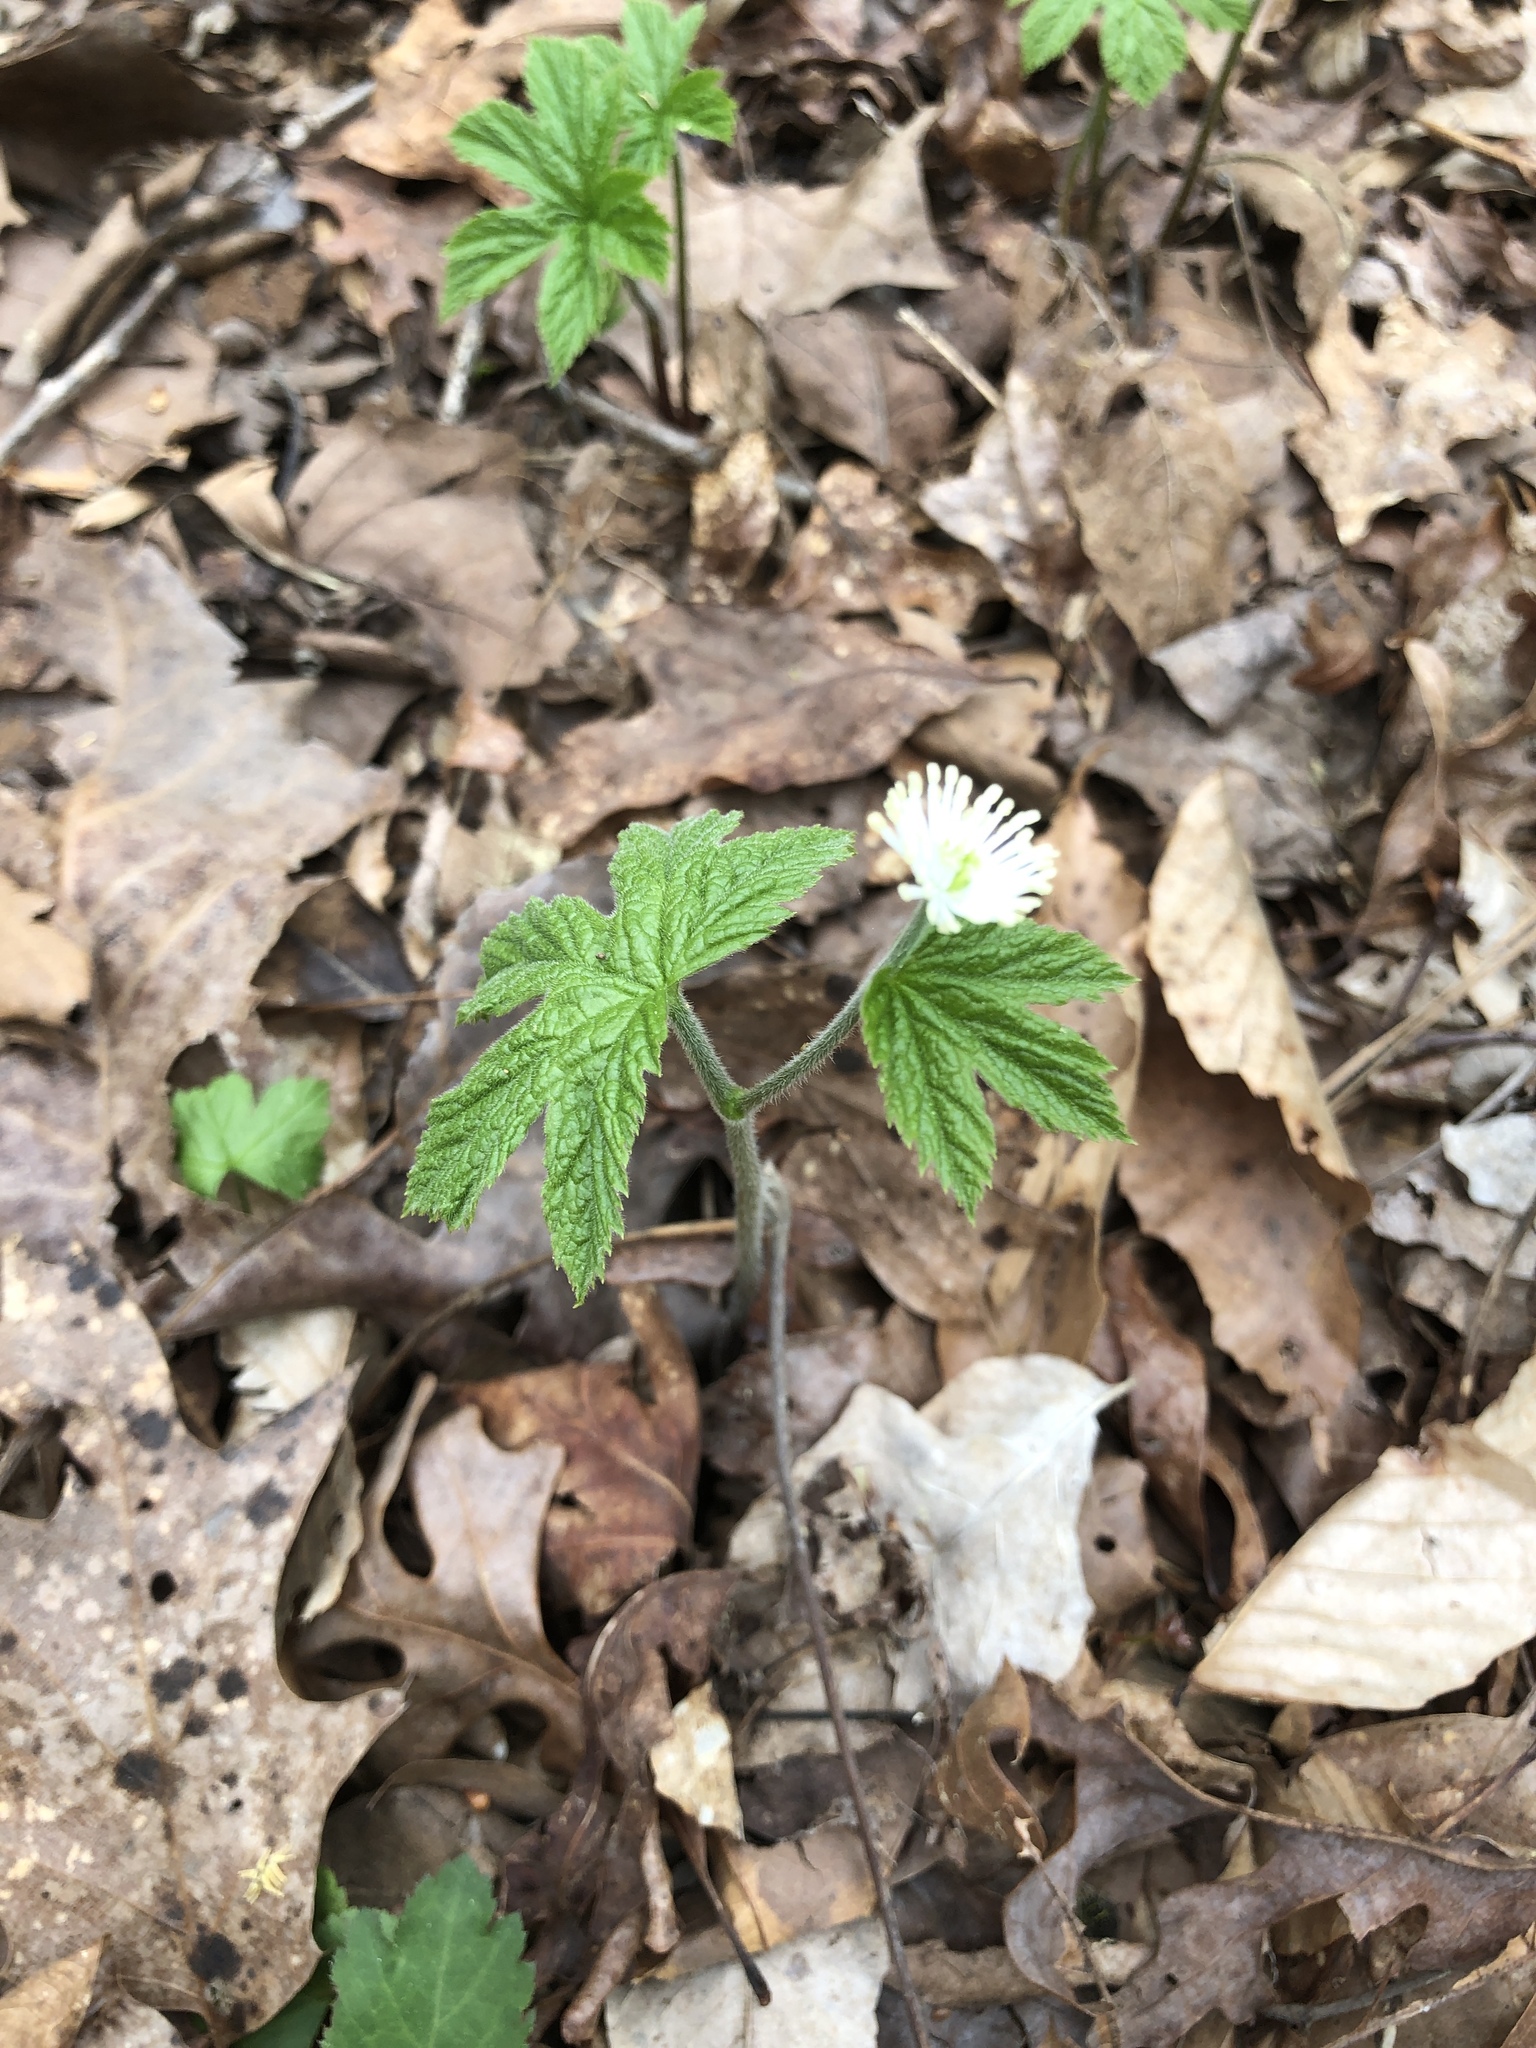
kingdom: Plantae
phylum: Tracheophyta
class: Magnoliopsida
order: Ranunculales
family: Ranunculaceae
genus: Hydrastis
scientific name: Hydrastis canadensis
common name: Goldenseal
